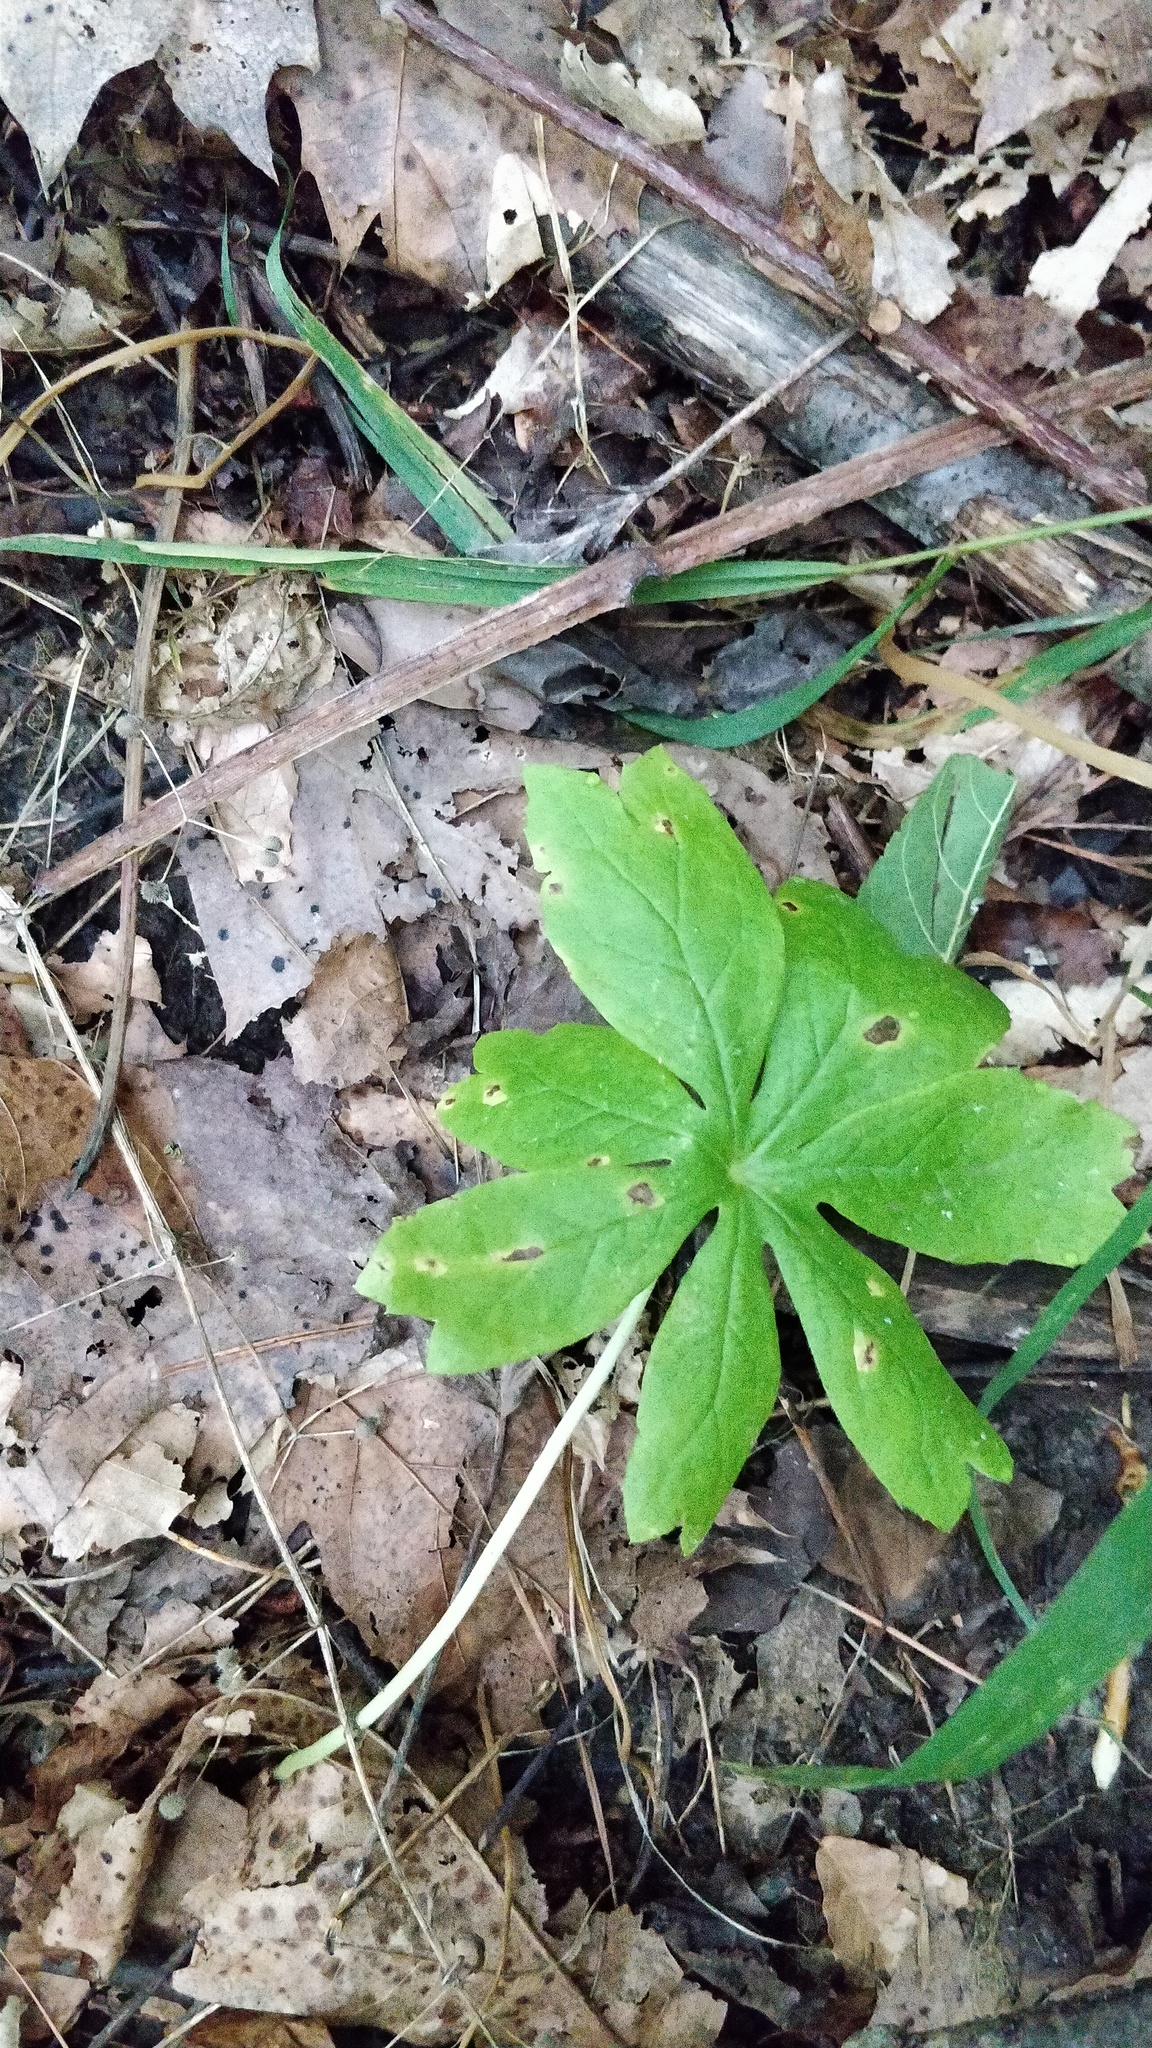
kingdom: Plantae
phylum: Tracheophyta
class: Magnoliopsida
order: Ranunculales
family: Berberidaceae
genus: Podophyllum
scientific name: Podophyllum peltatum
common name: Wild mandrake
